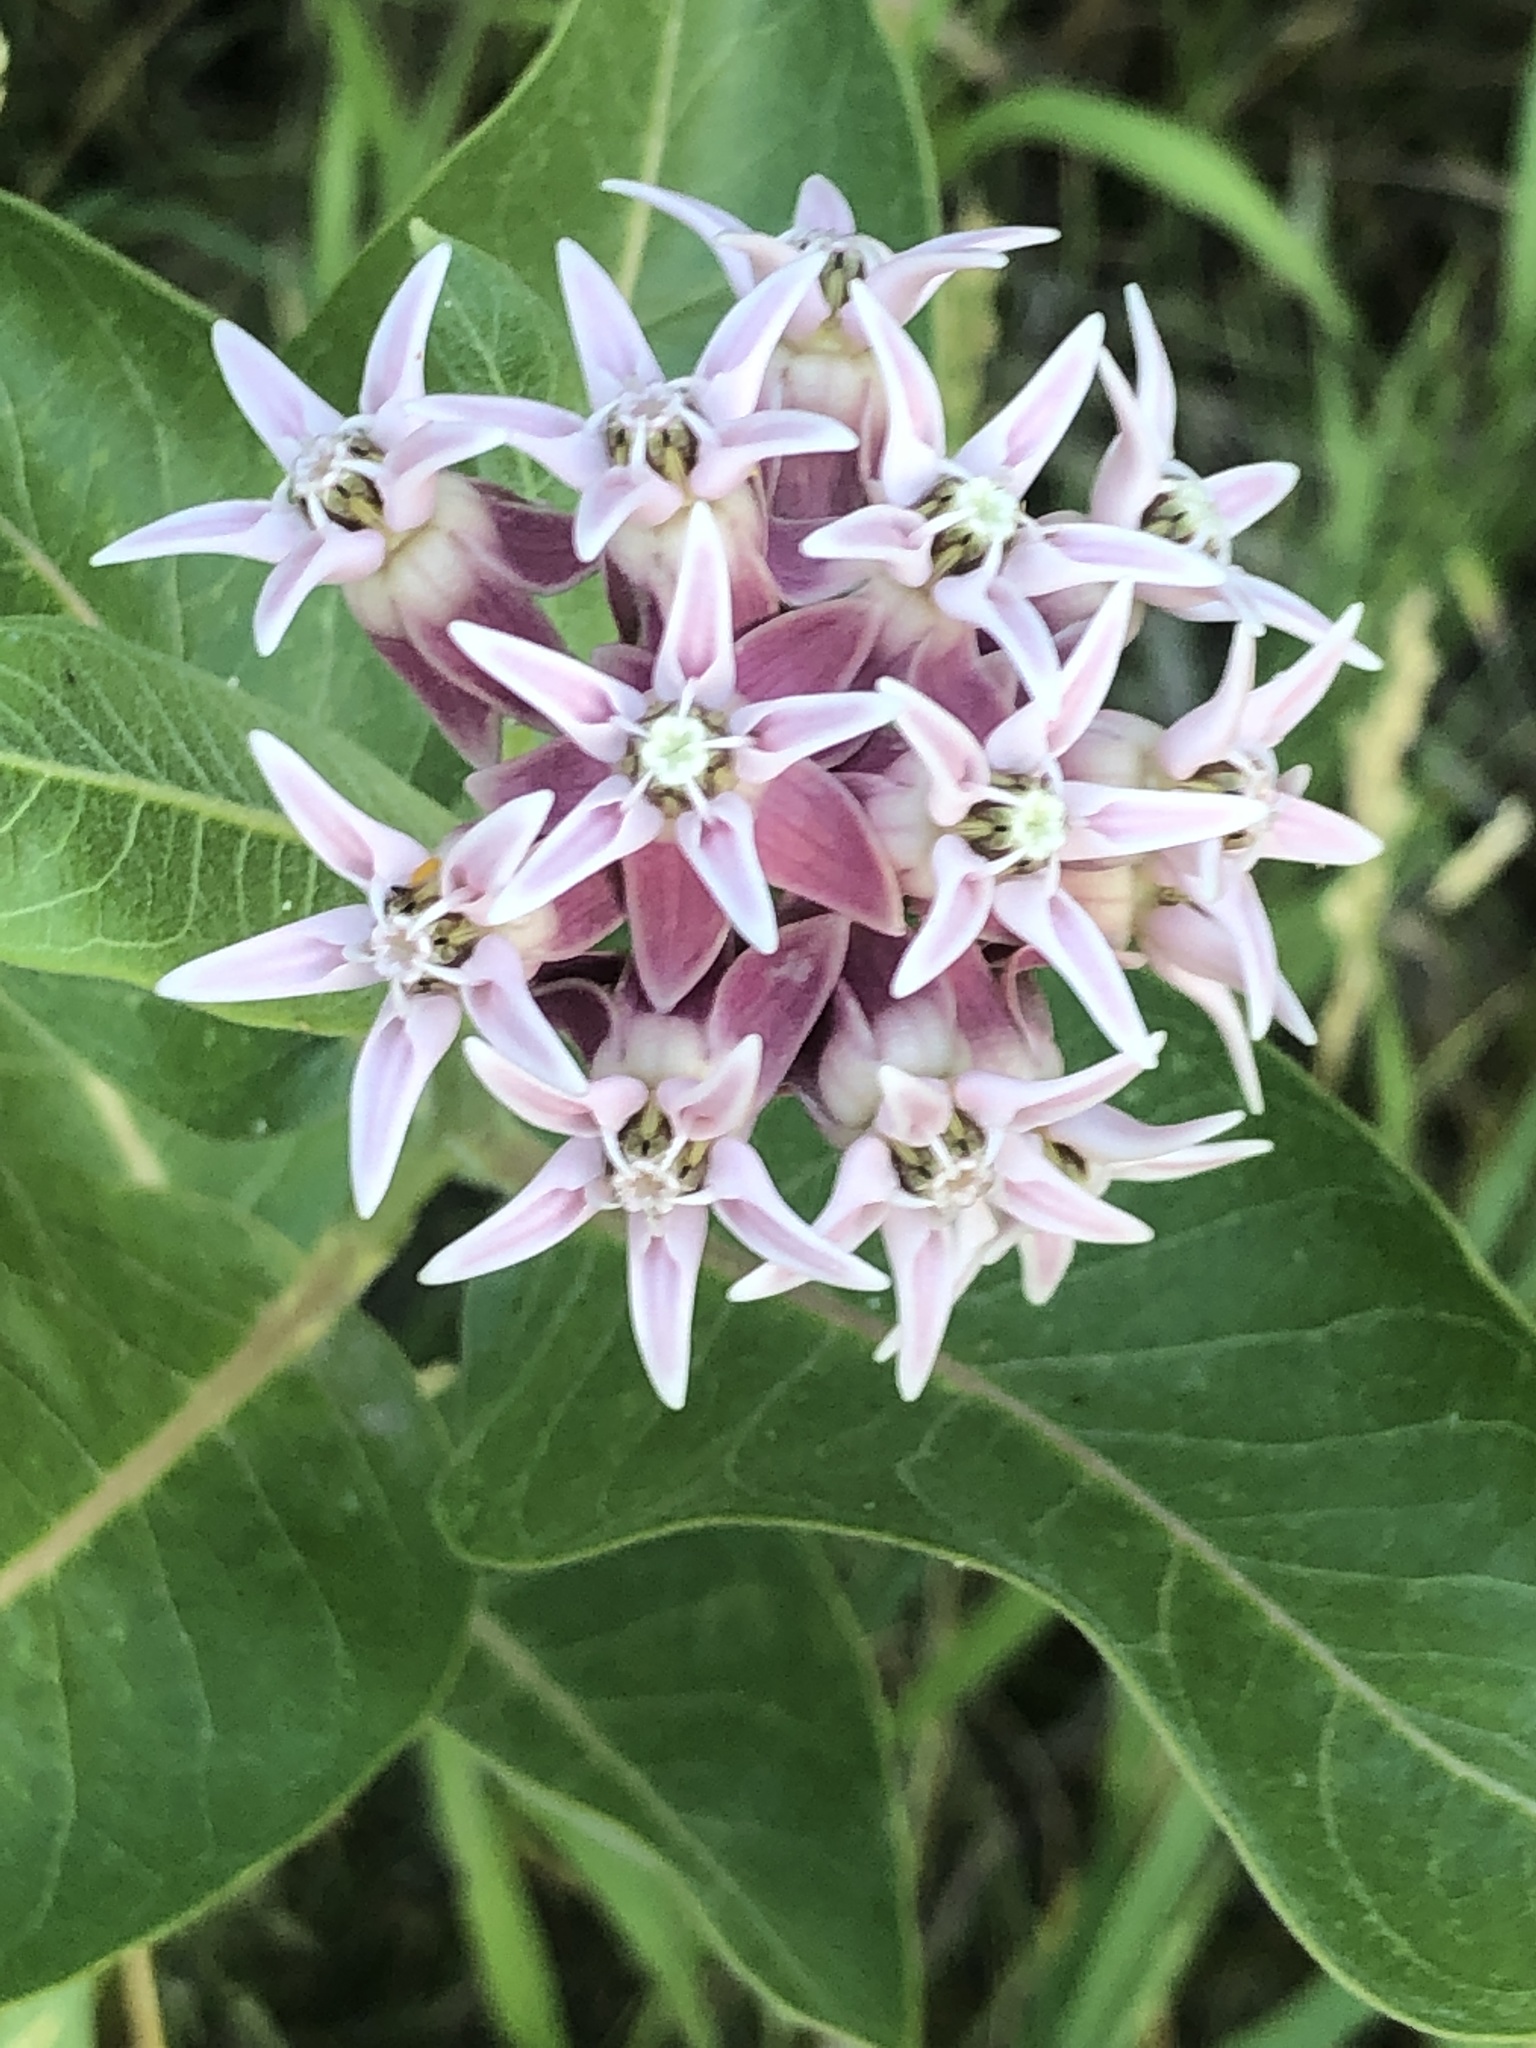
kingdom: Plantae
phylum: Tracheophyta
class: Magnoliopsida
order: Gentianales
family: Apocynaceae
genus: Asclepias
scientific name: Asclepias speciosa
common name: Showy milkweed
